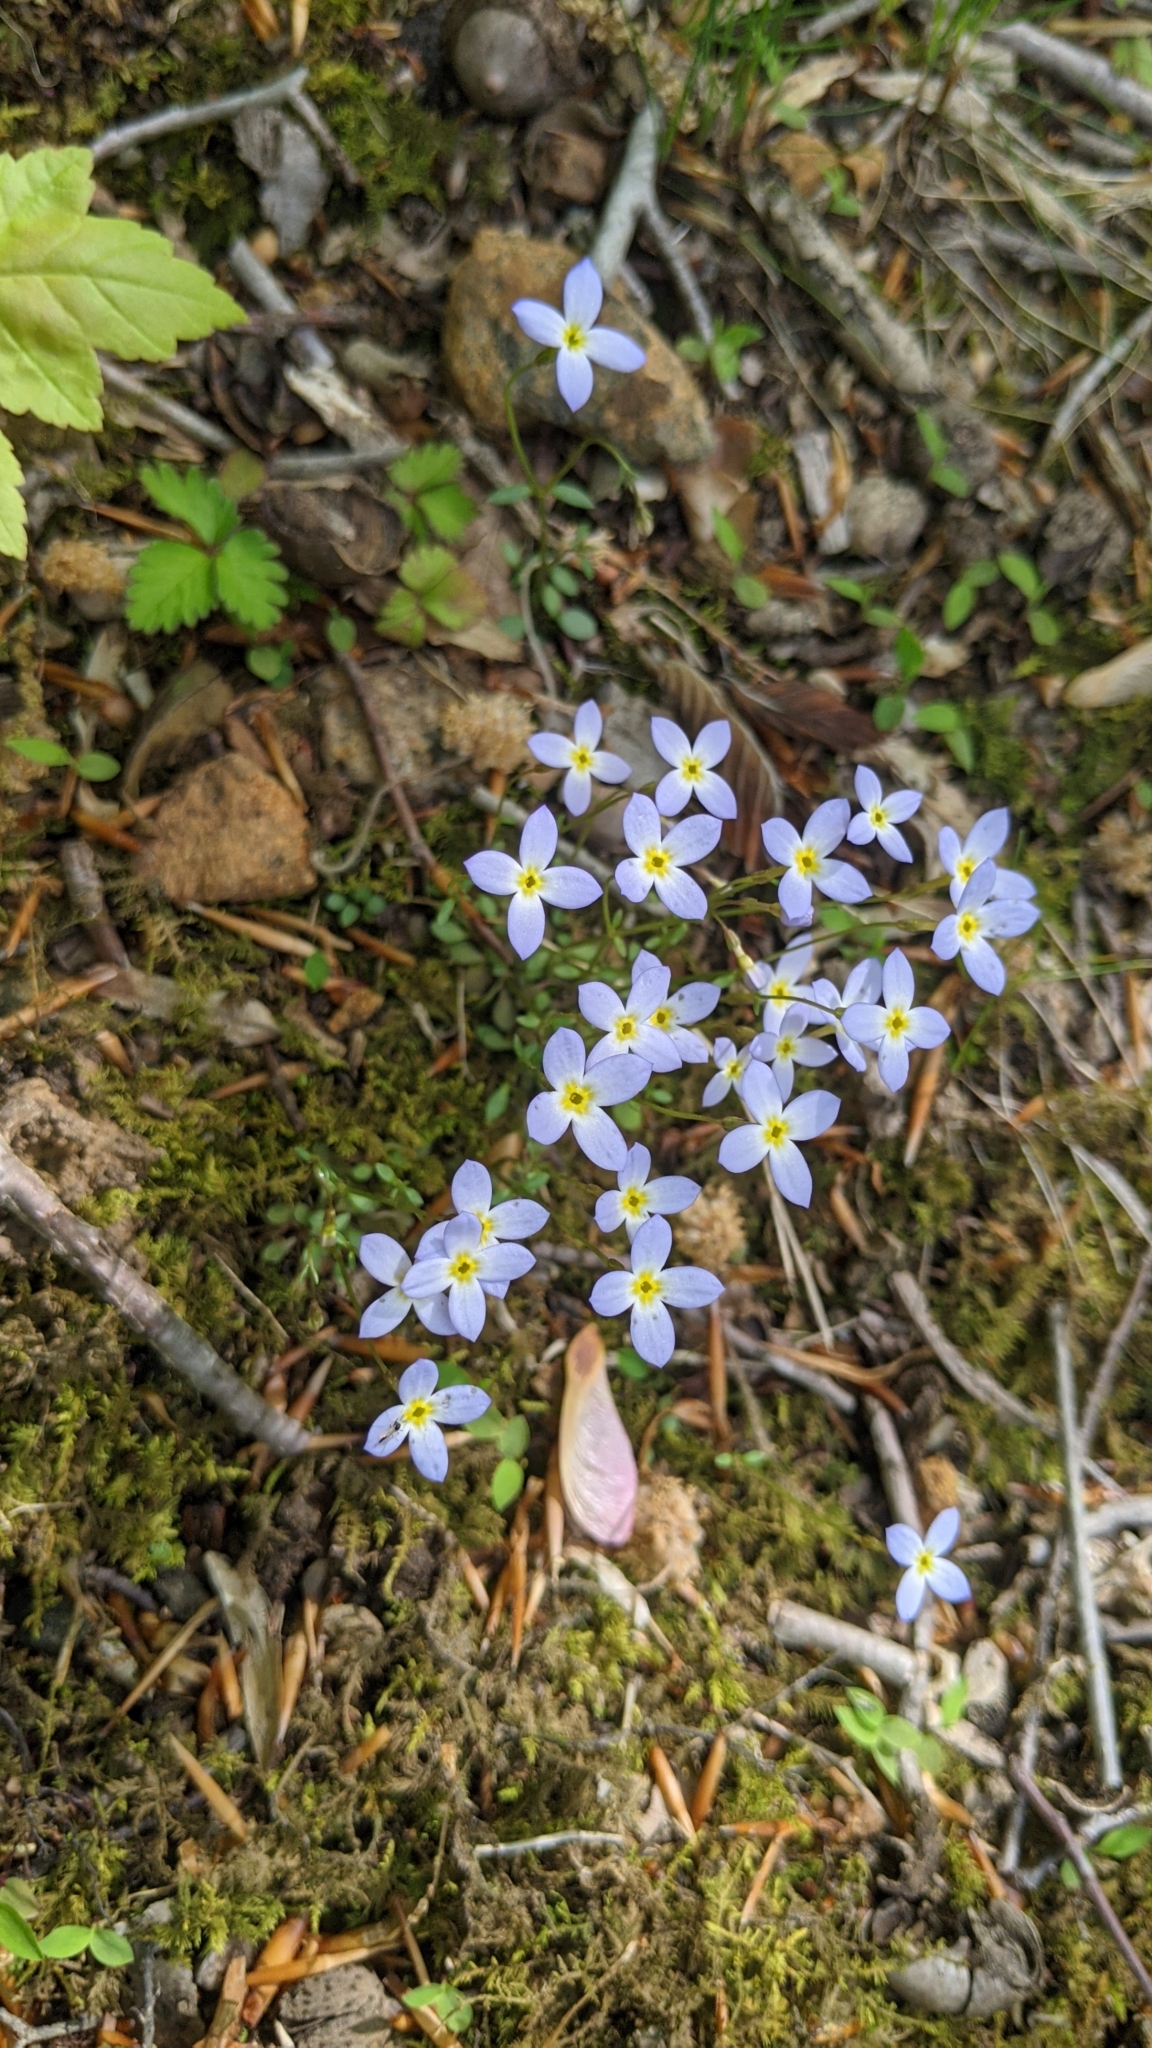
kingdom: Plantae
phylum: Tracheophyta
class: Magnoliopsida
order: Gentianales
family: Rubiaceae
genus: Houstonia
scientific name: Houstonia caerulea
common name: Bluets
